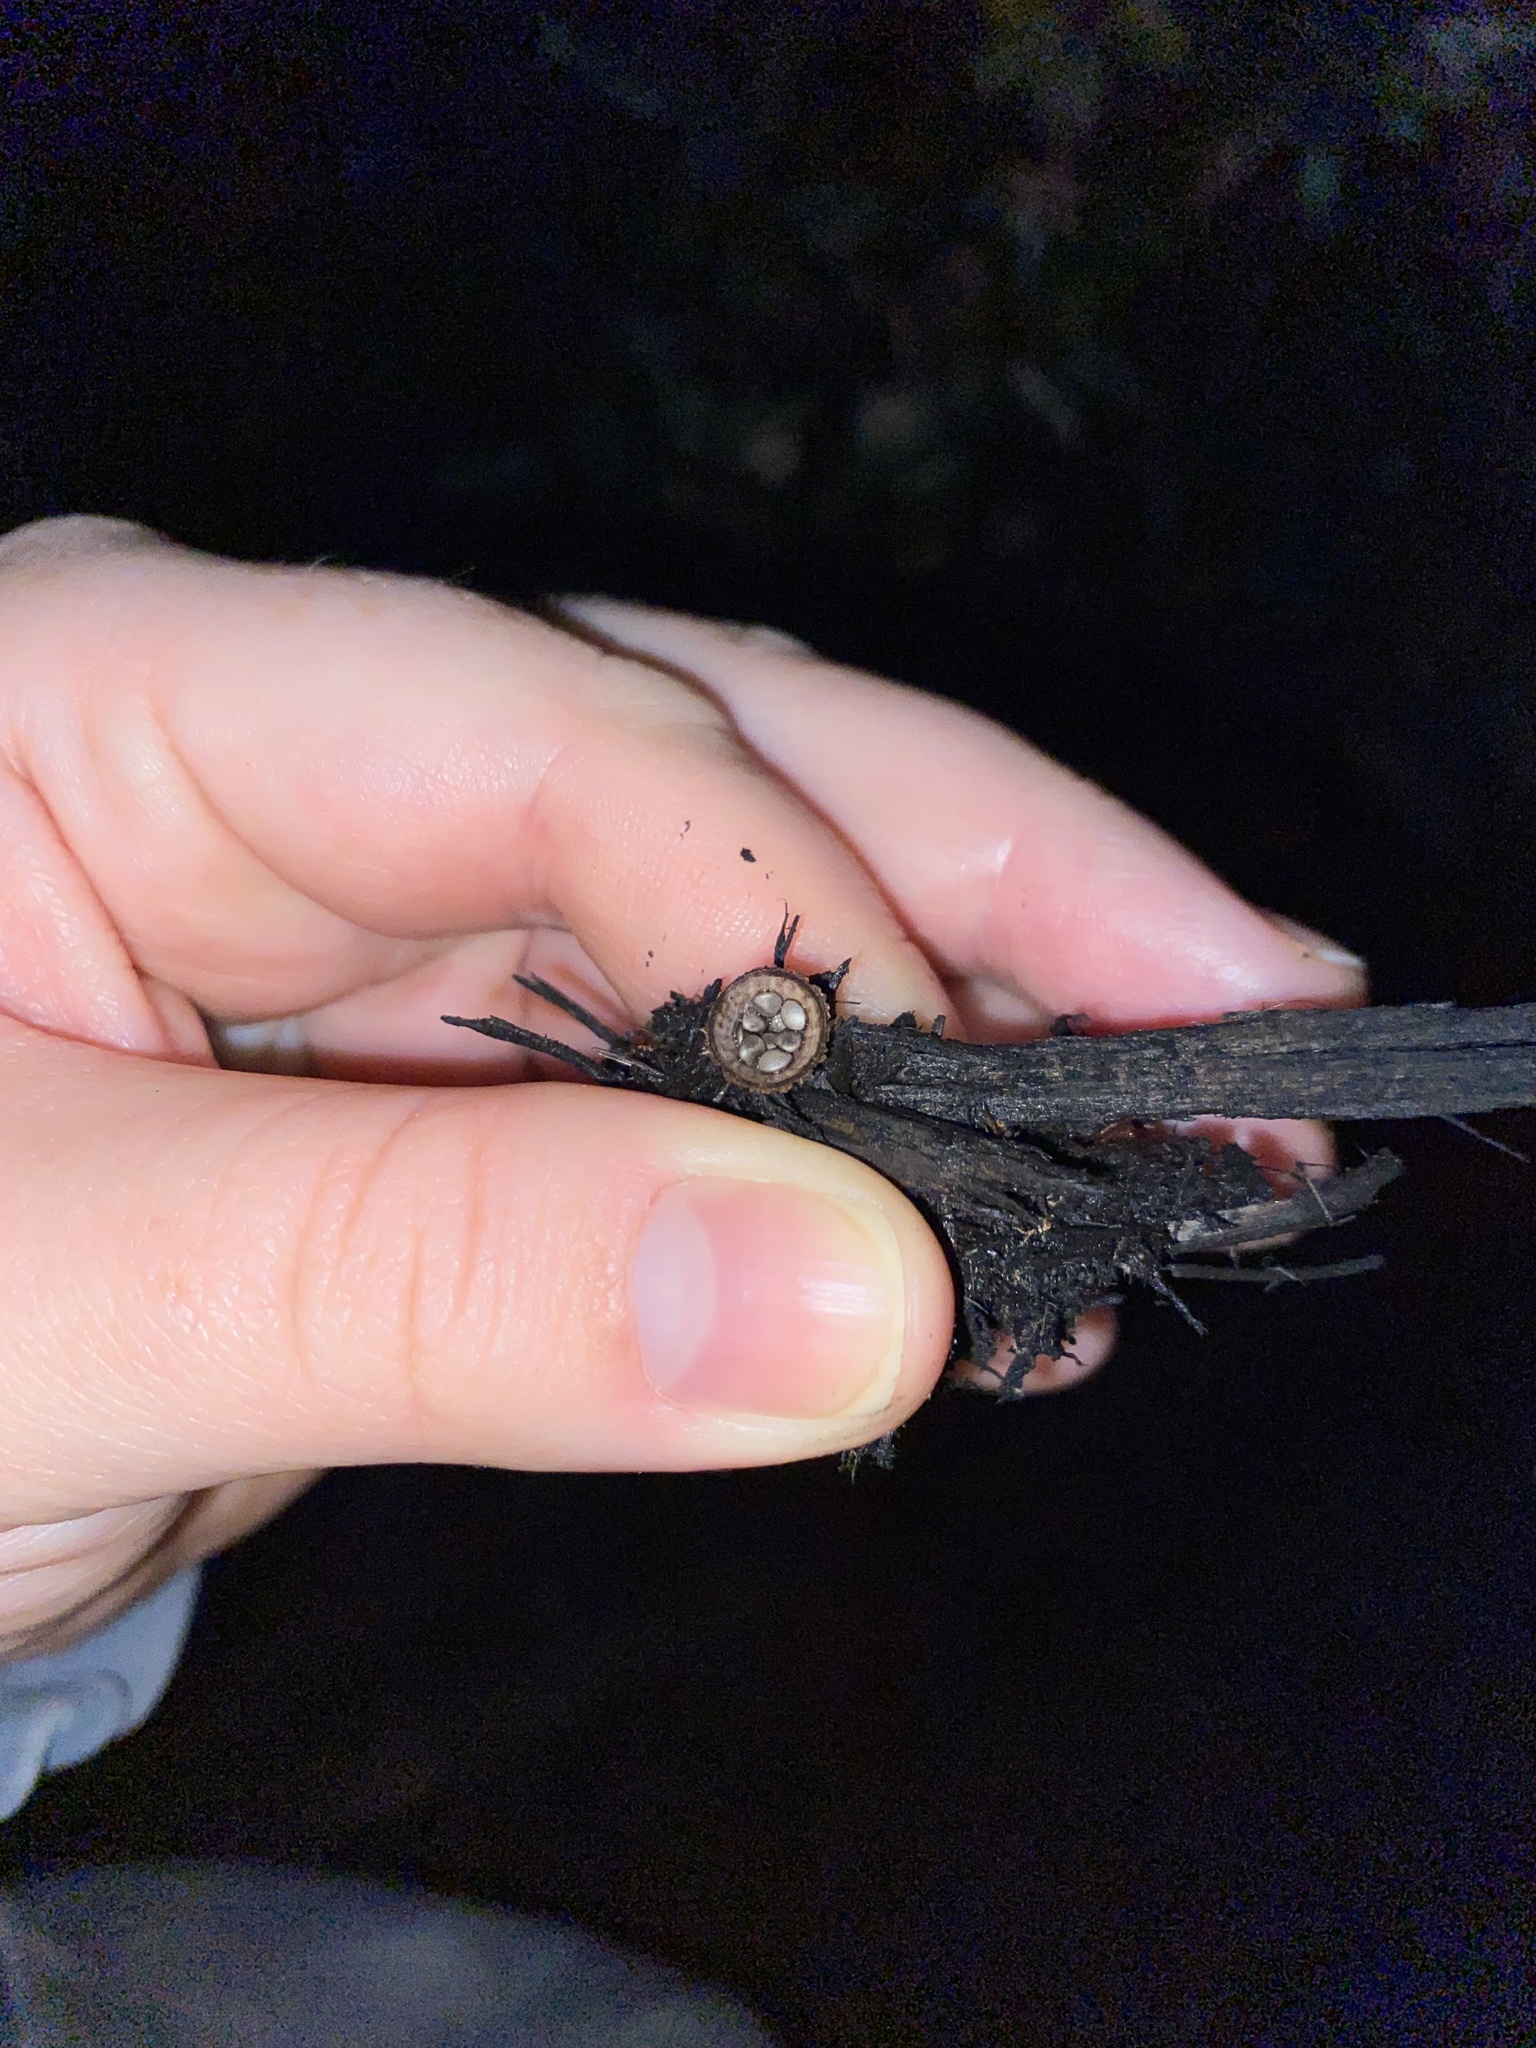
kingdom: Fungi
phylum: Basidiomycota
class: Agaricomycetes
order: Agaricales
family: Agaricaceae
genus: Cyathus
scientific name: Cyathus striatus
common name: Fluted bird's nest
